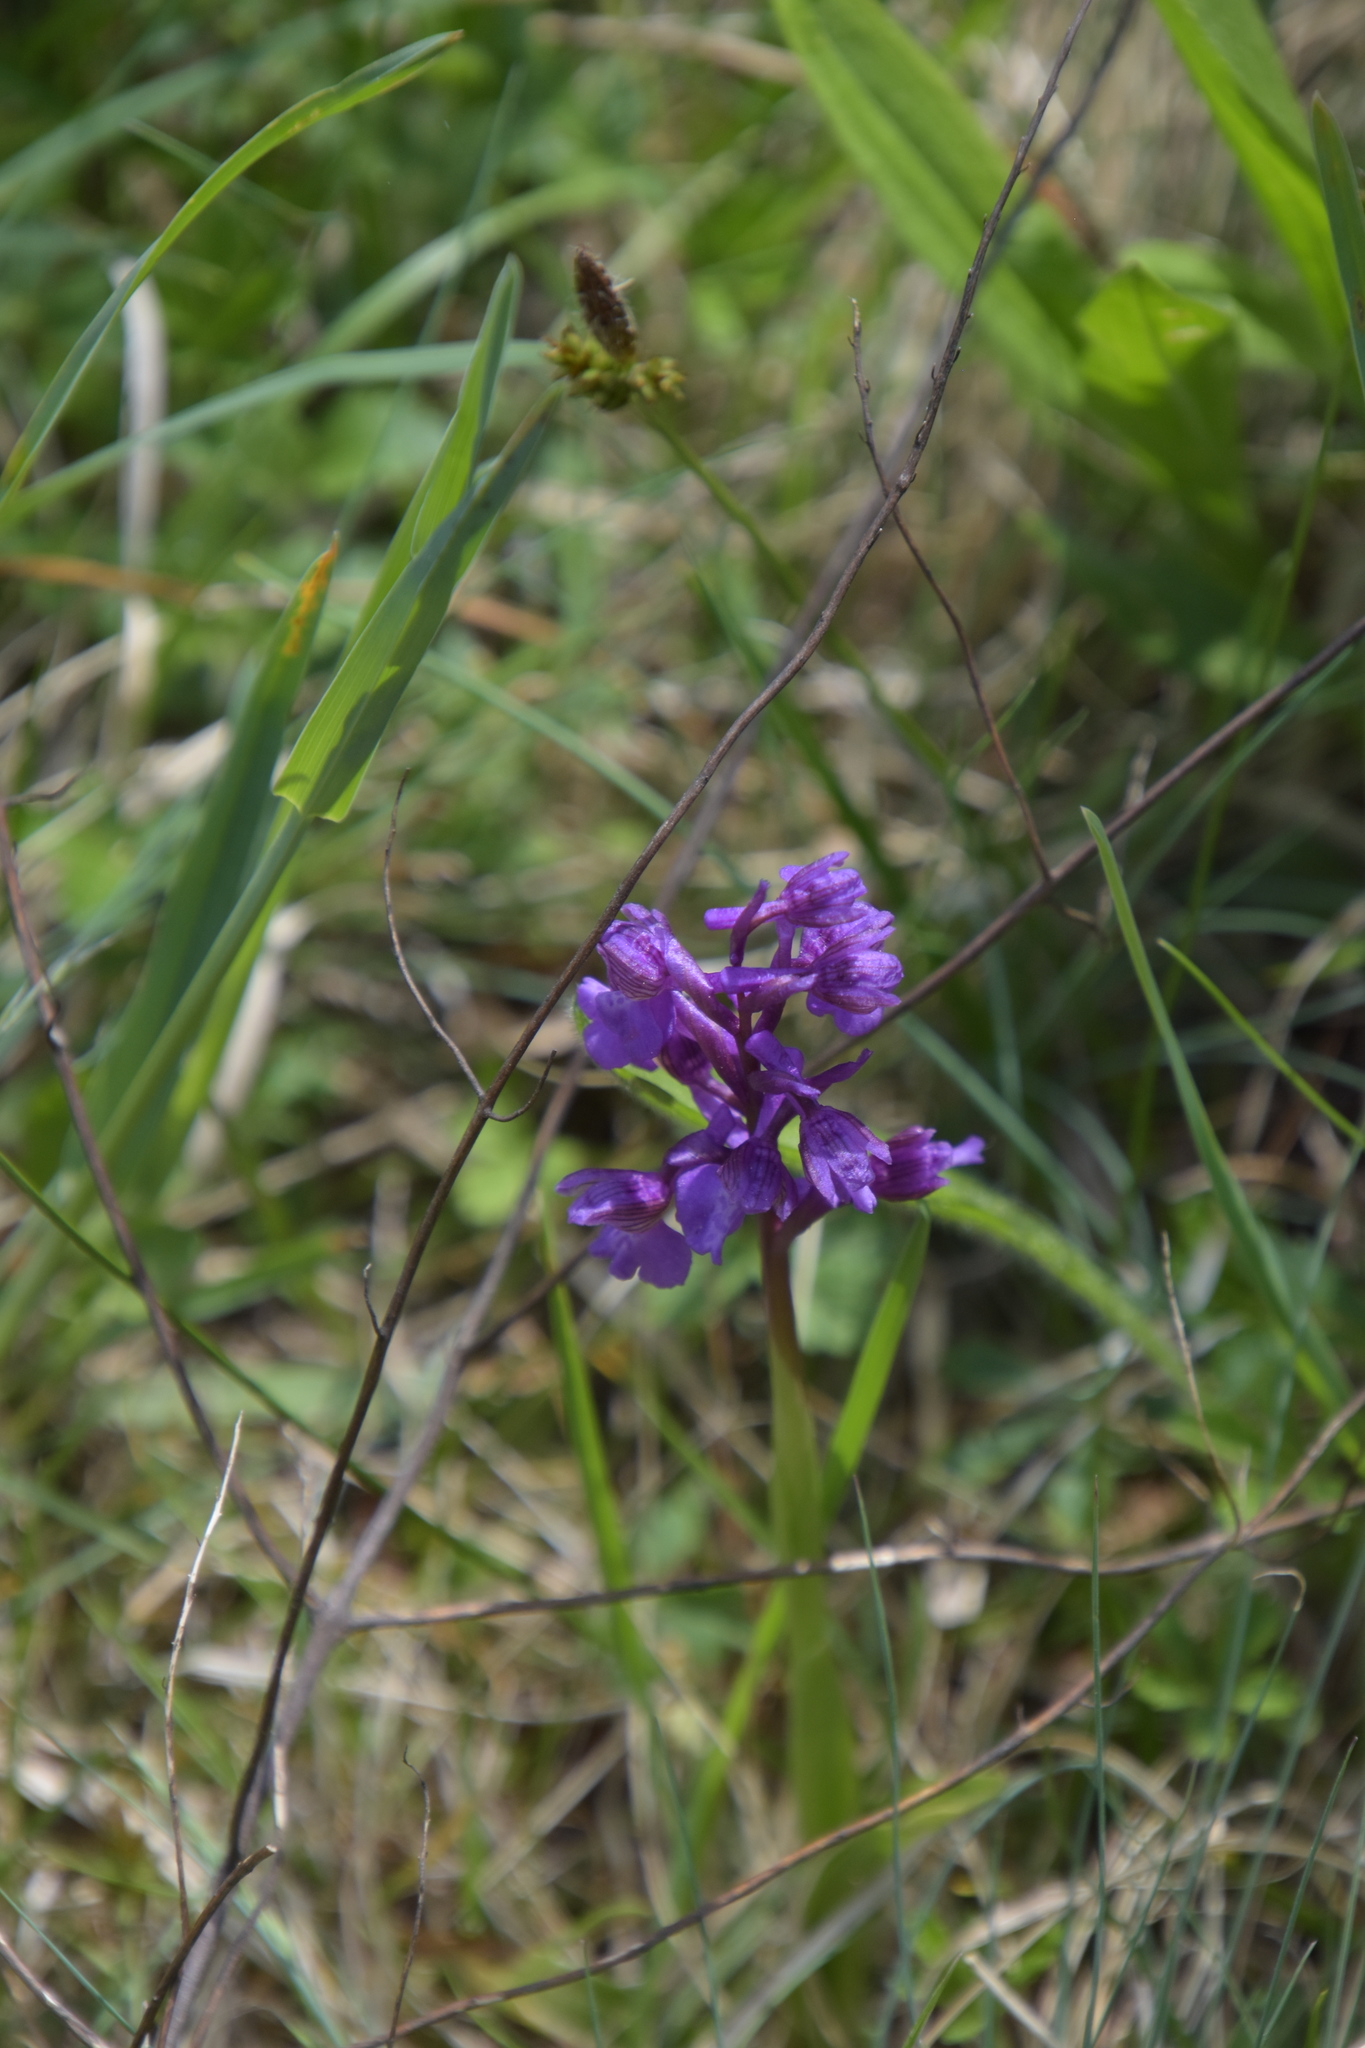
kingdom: Plantae
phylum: Tracheophyta
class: Liliopsida
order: Asparagales
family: Orchidaceae
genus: Anacamptis
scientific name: Anacamptis morio
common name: Green-winged orchid
